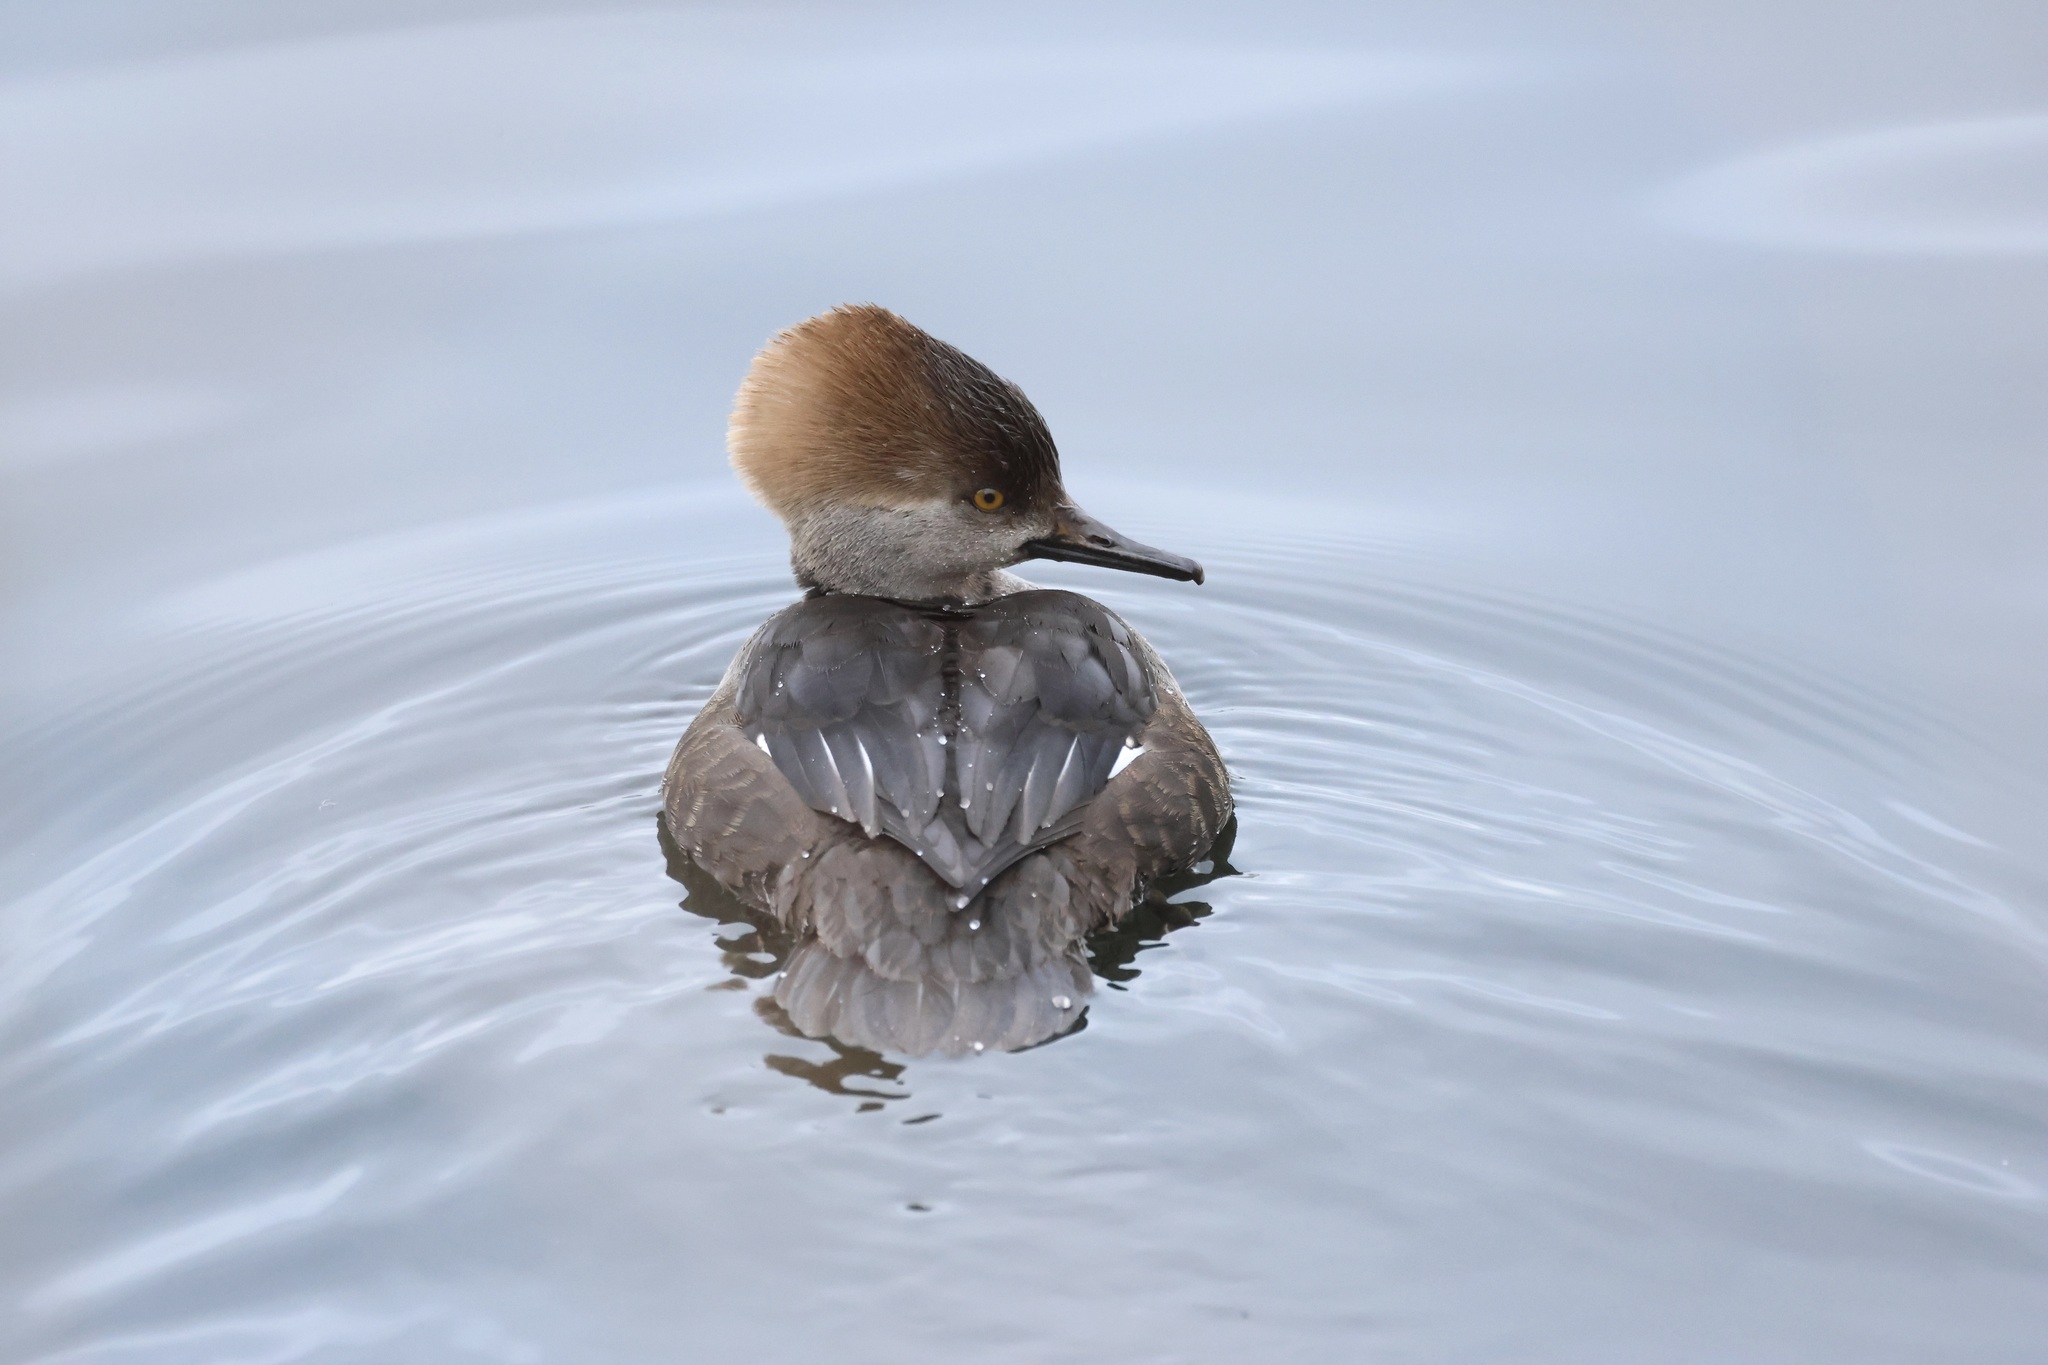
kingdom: Animalia
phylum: Chordata
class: Aves
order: Anseriformes
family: Anatidae
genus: Lophodytes
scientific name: Lophodytes cucullatus
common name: Hooded merganser
